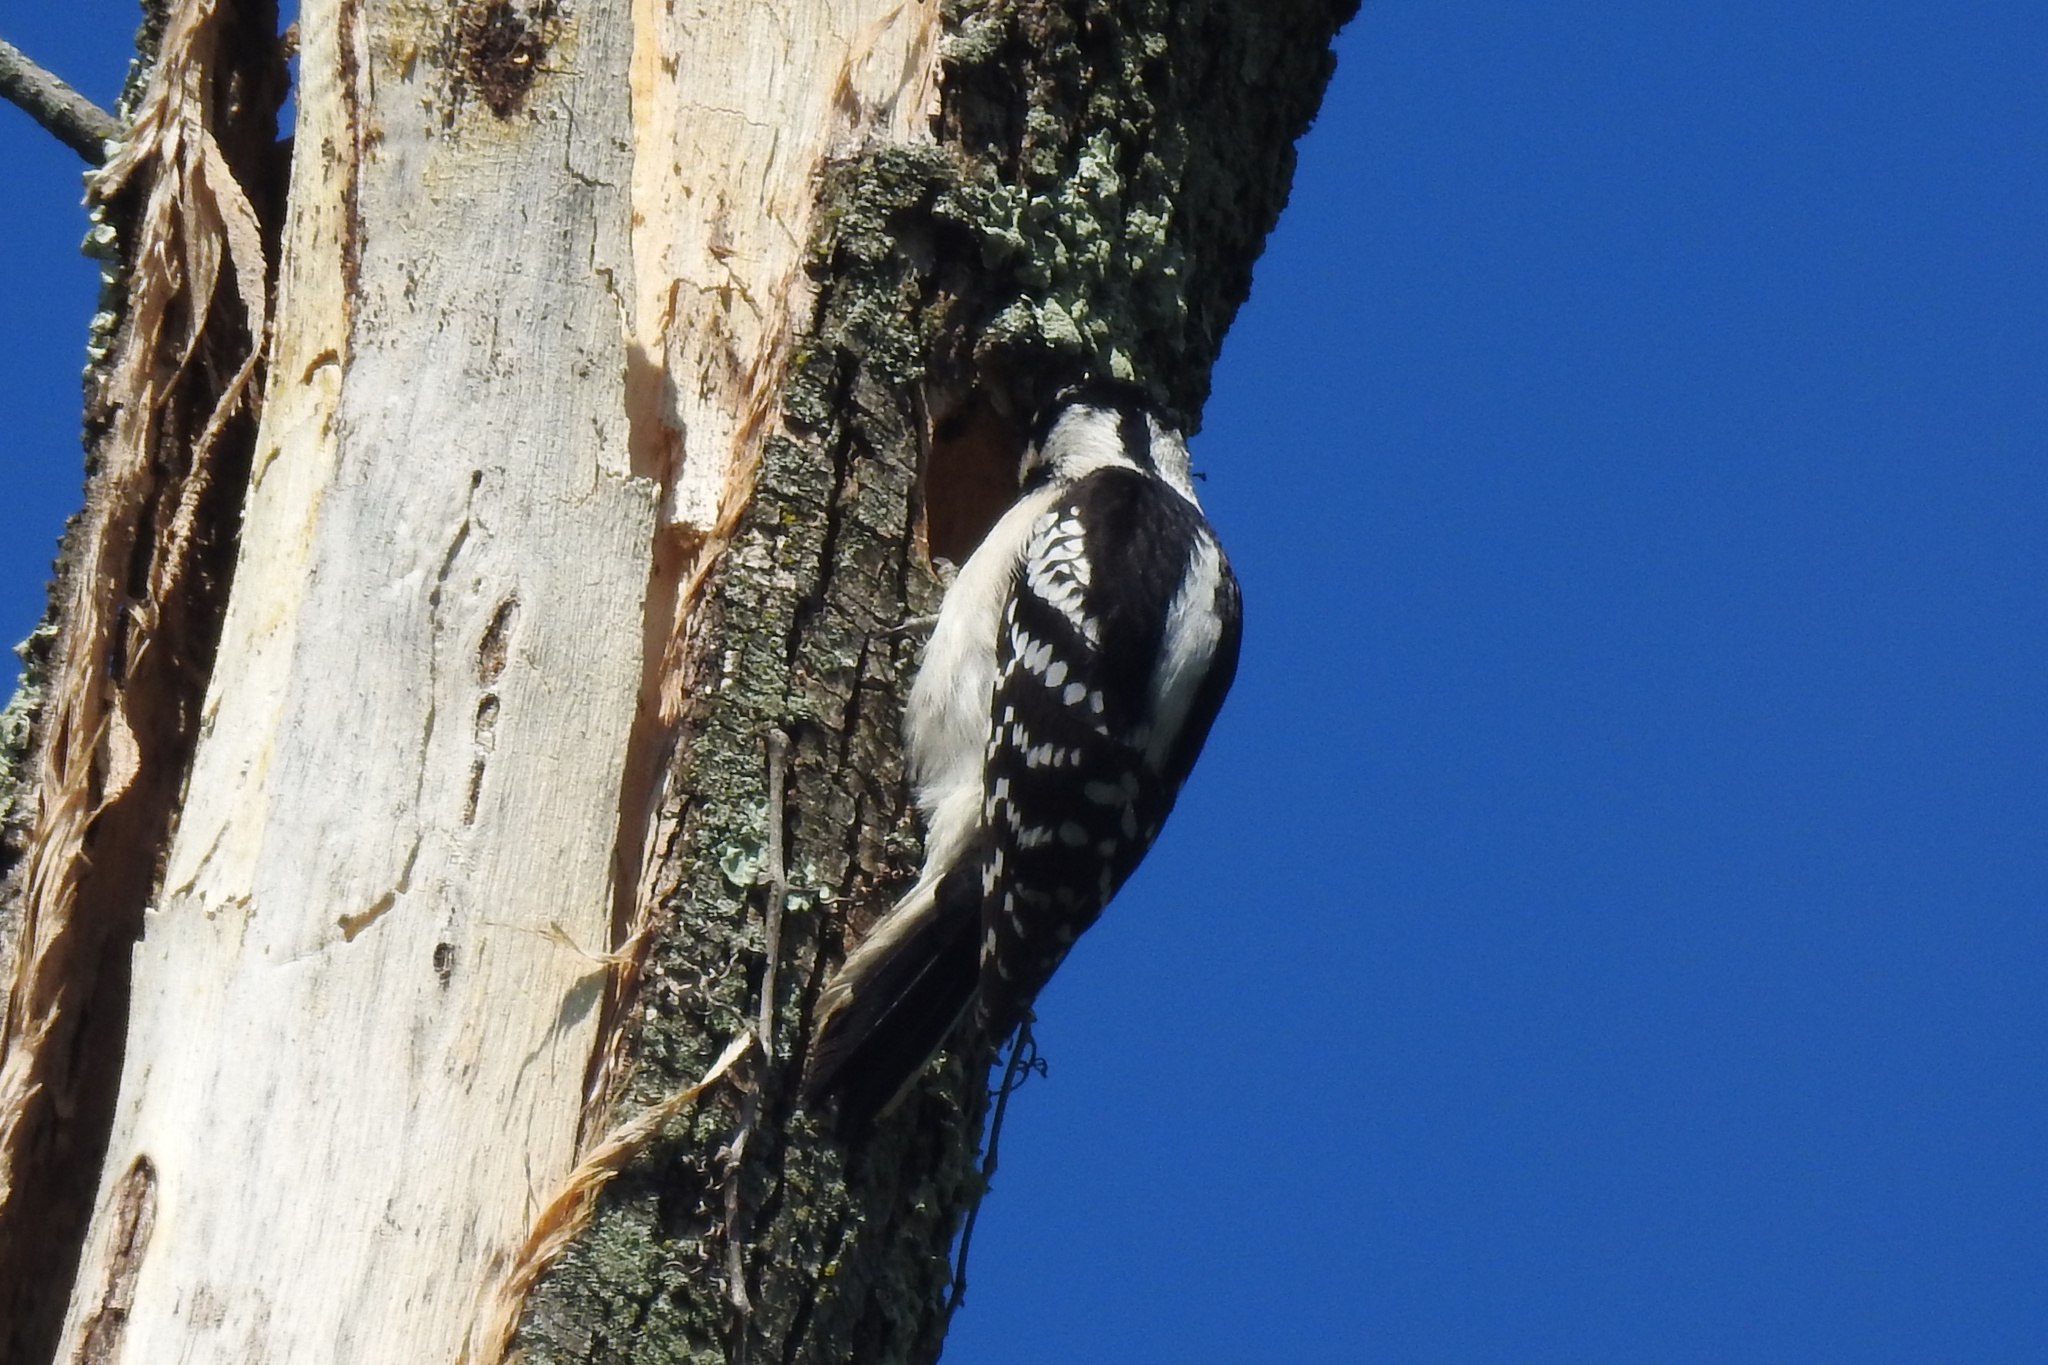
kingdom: Animalia
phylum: Chordata
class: Aves
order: Piciformes
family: Picidae
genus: Leuconotopicus
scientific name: Leuconotopicus villosus
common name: Hairy woodpecker
